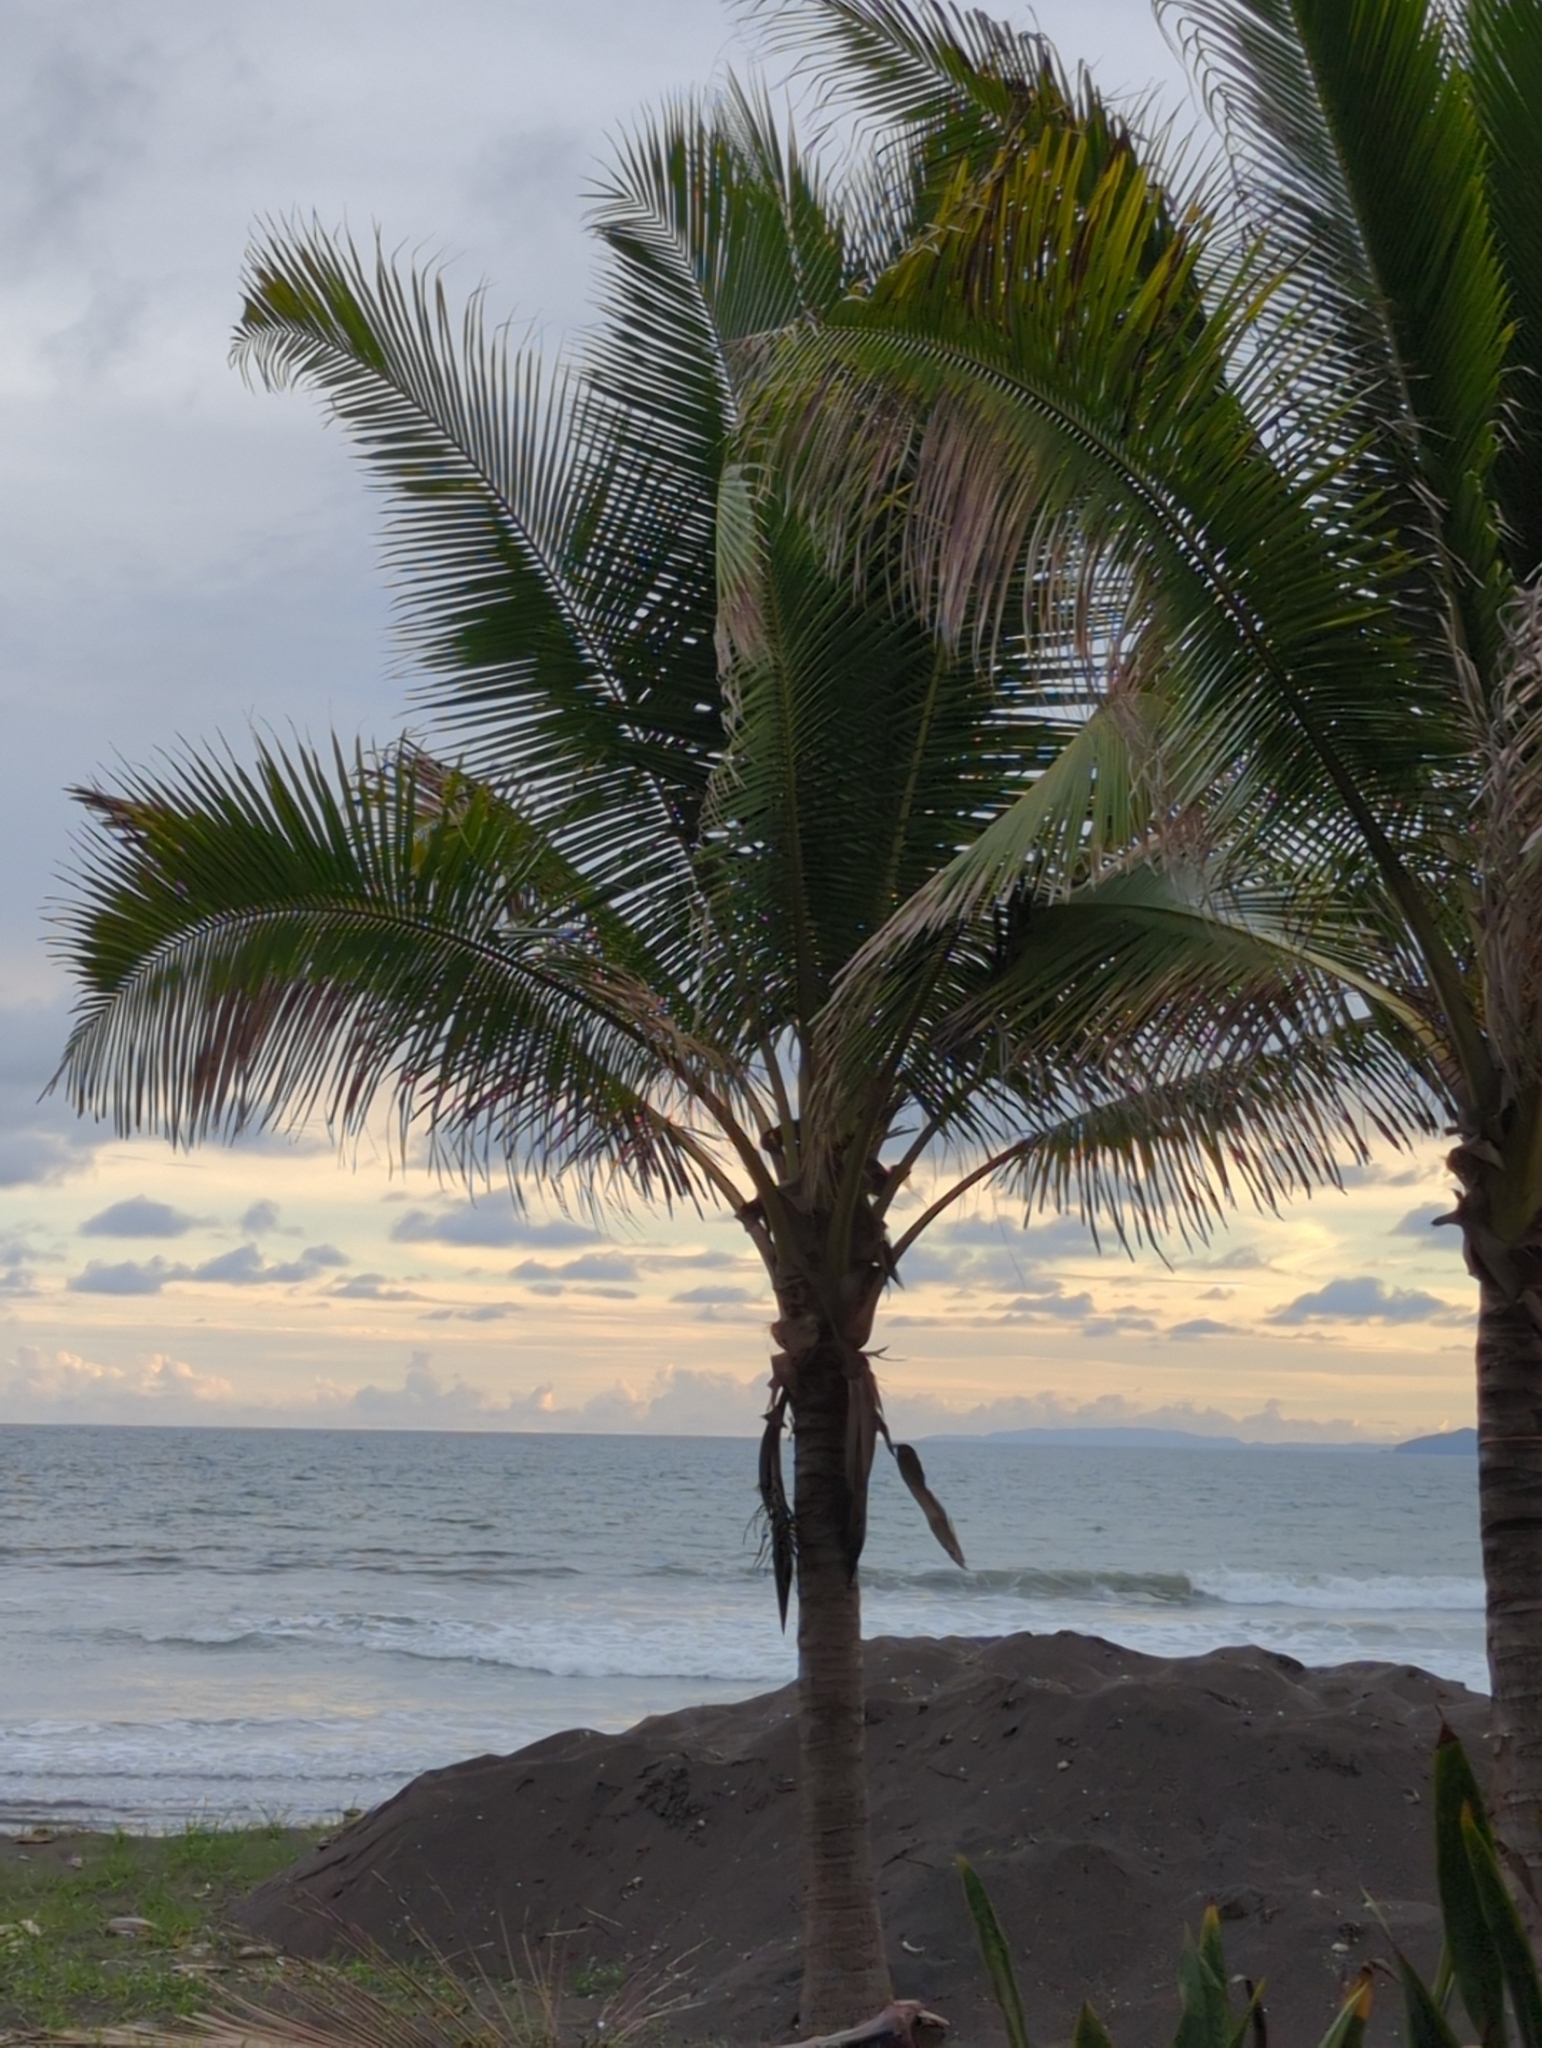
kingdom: Plantae
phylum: Tracheophyta
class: Liliopsida
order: Arecales
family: Arecaceae
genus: Cocos
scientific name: Cocos nucifera
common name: Coconut palm
